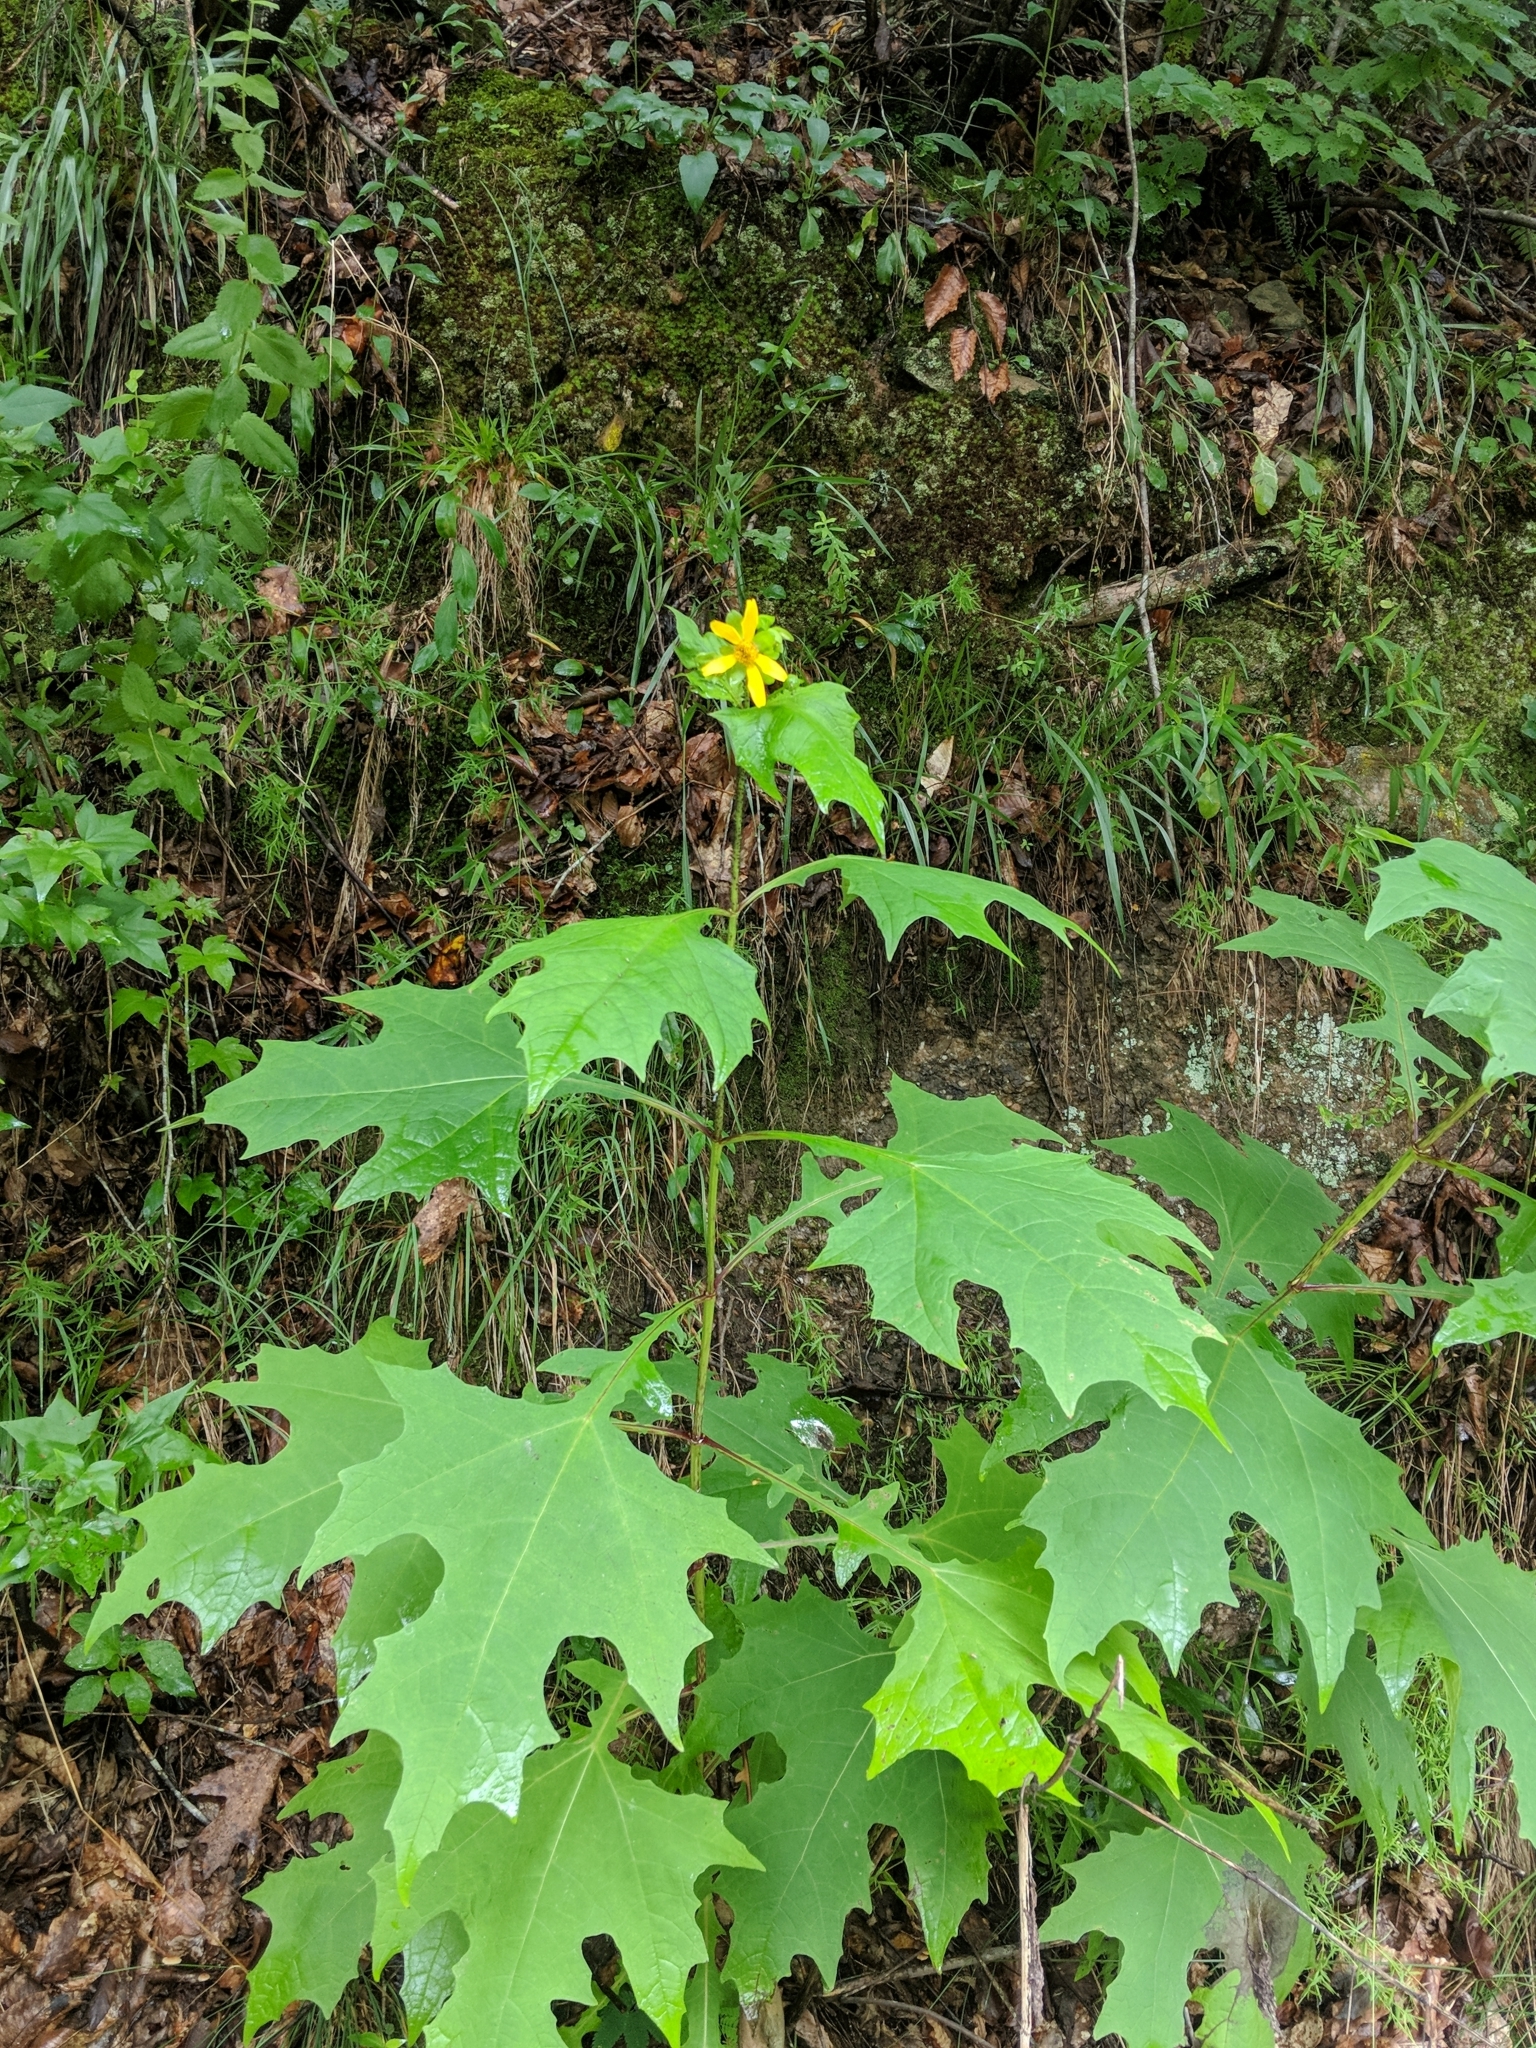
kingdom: Plantae
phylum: Tracheophyta
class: Magnoliopsida
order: Asterales
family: Asteraceae
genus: Smallanthus
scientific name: Smallanthus uvedalia
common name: Bear's-foot
